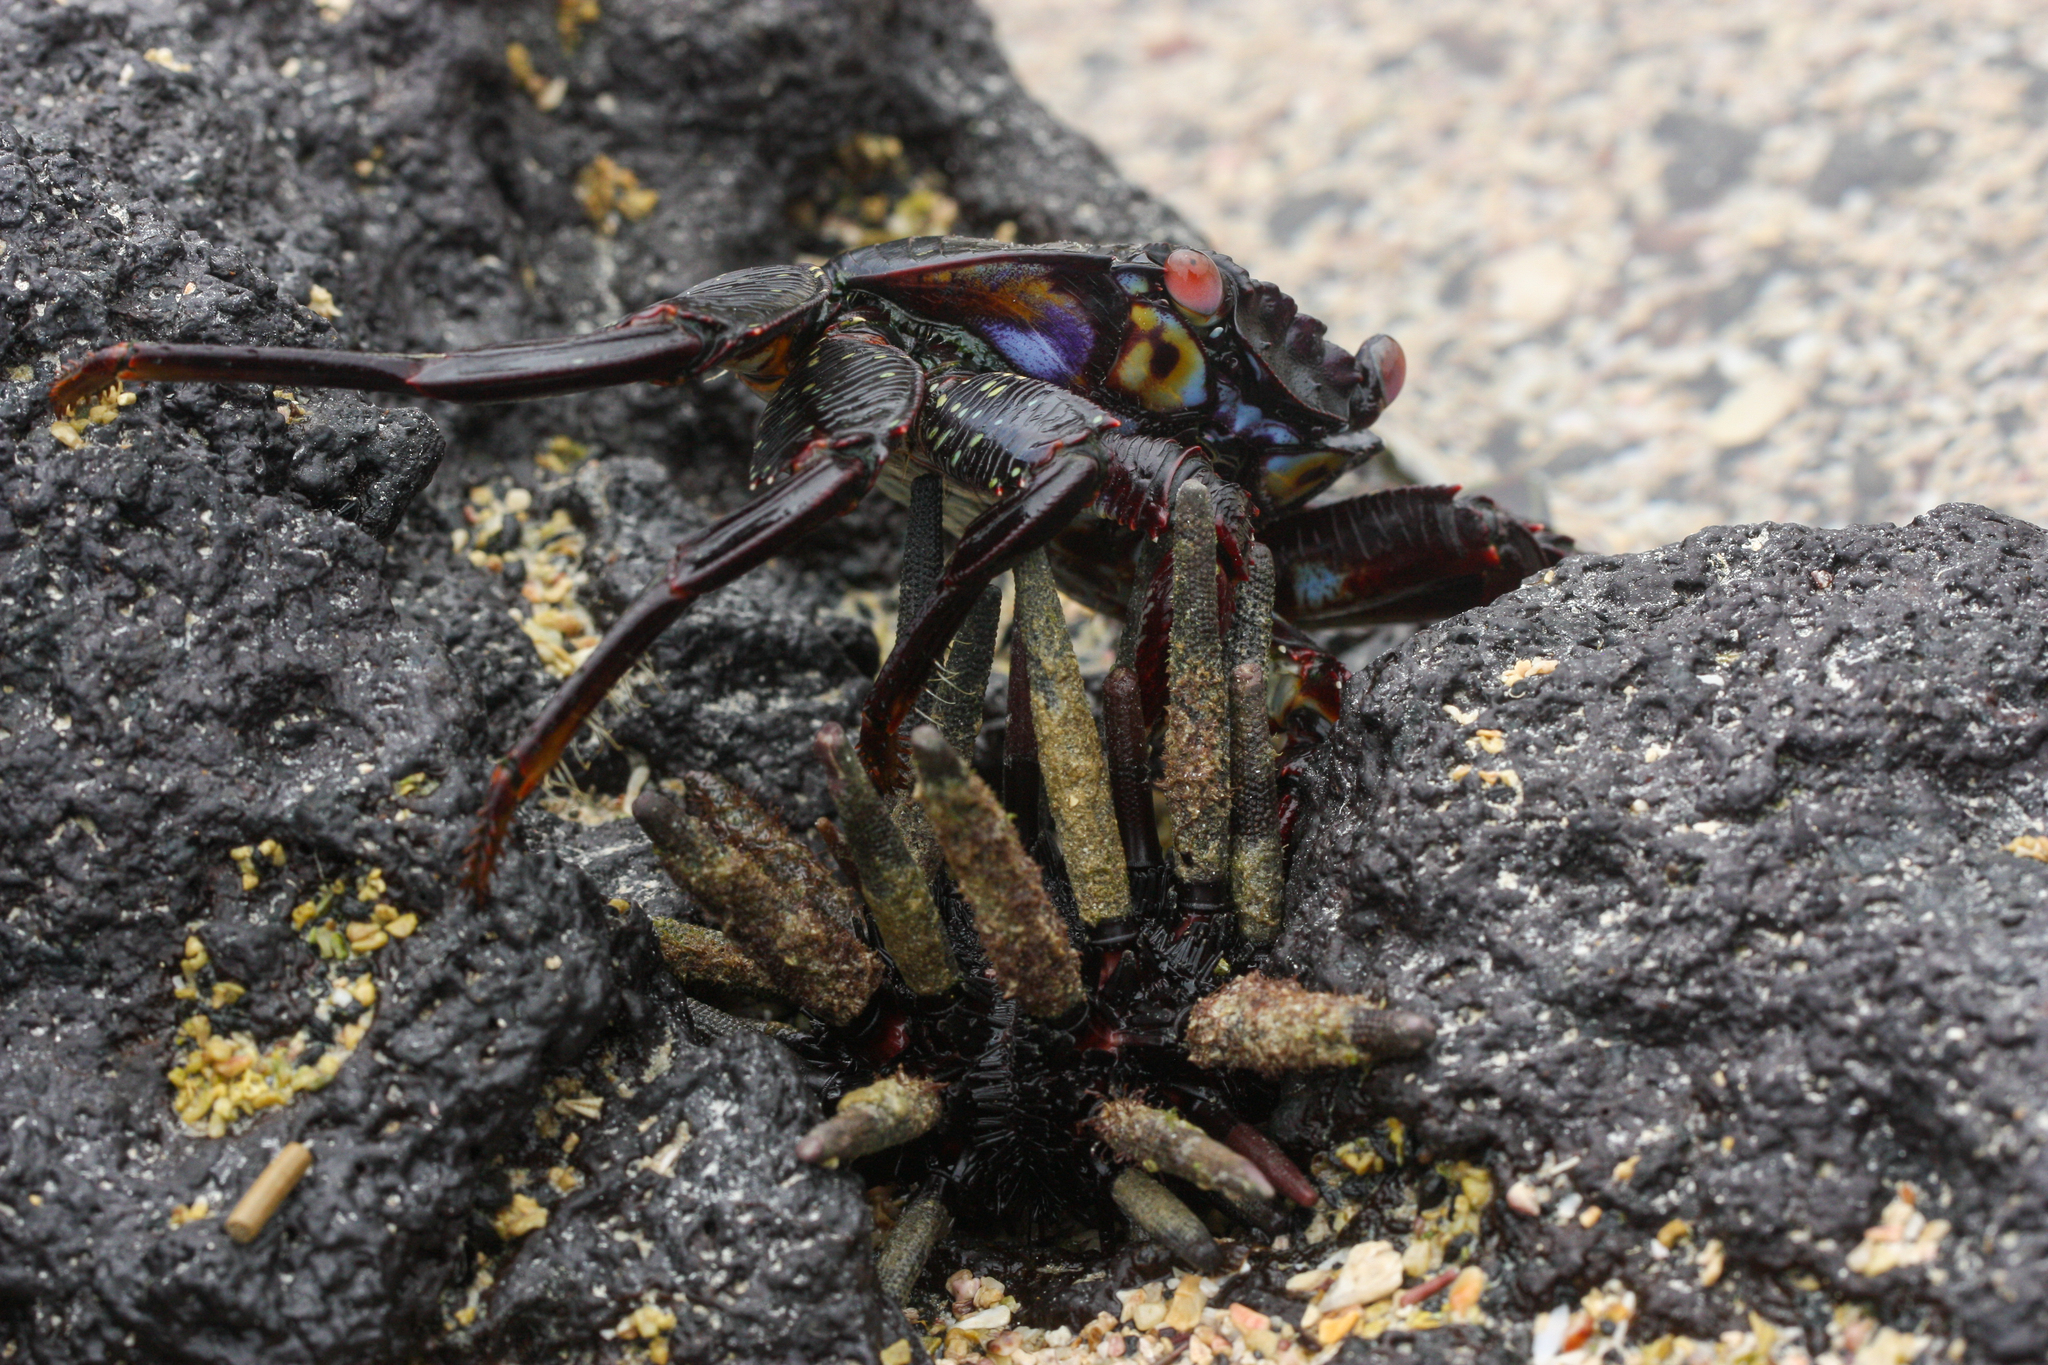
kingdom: Animalia
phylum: Arthropoda
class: Malacostraca
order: Decapoda
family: Grapsidae
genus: Grapsus
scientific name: Grapsus grapsus
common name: Sally lightfoot
